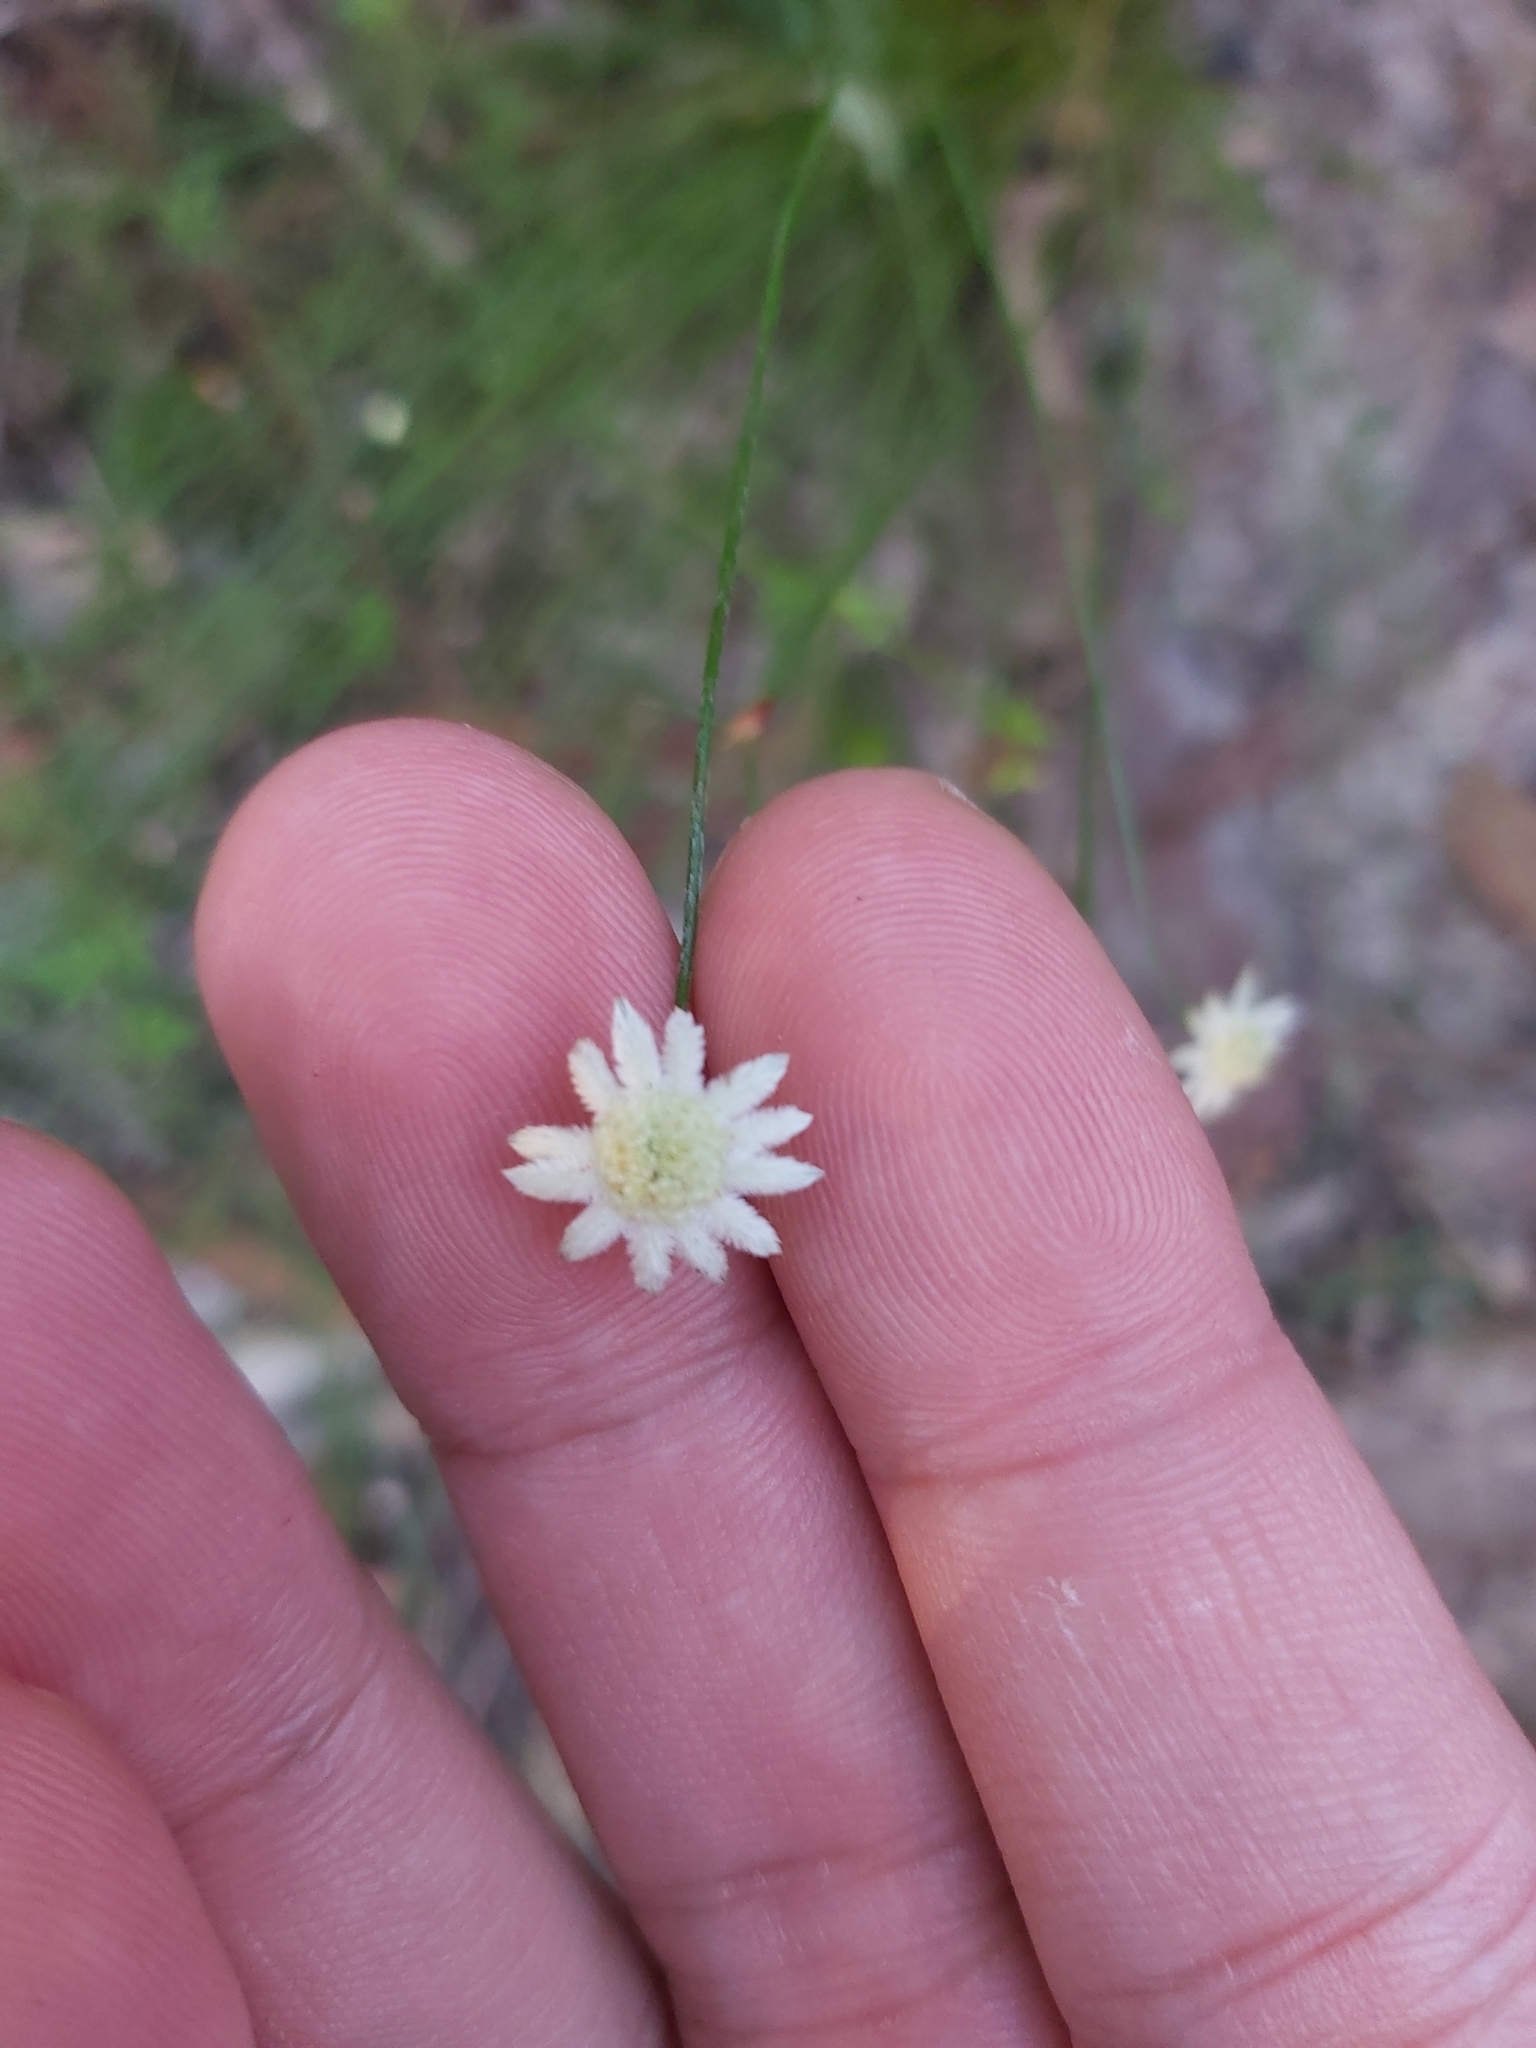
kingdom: Plantae
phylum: Tracheophyta
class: Magnoliopsida
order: Apiales
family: Apiaceae
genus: Actinotus
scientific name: Actinotus minor
